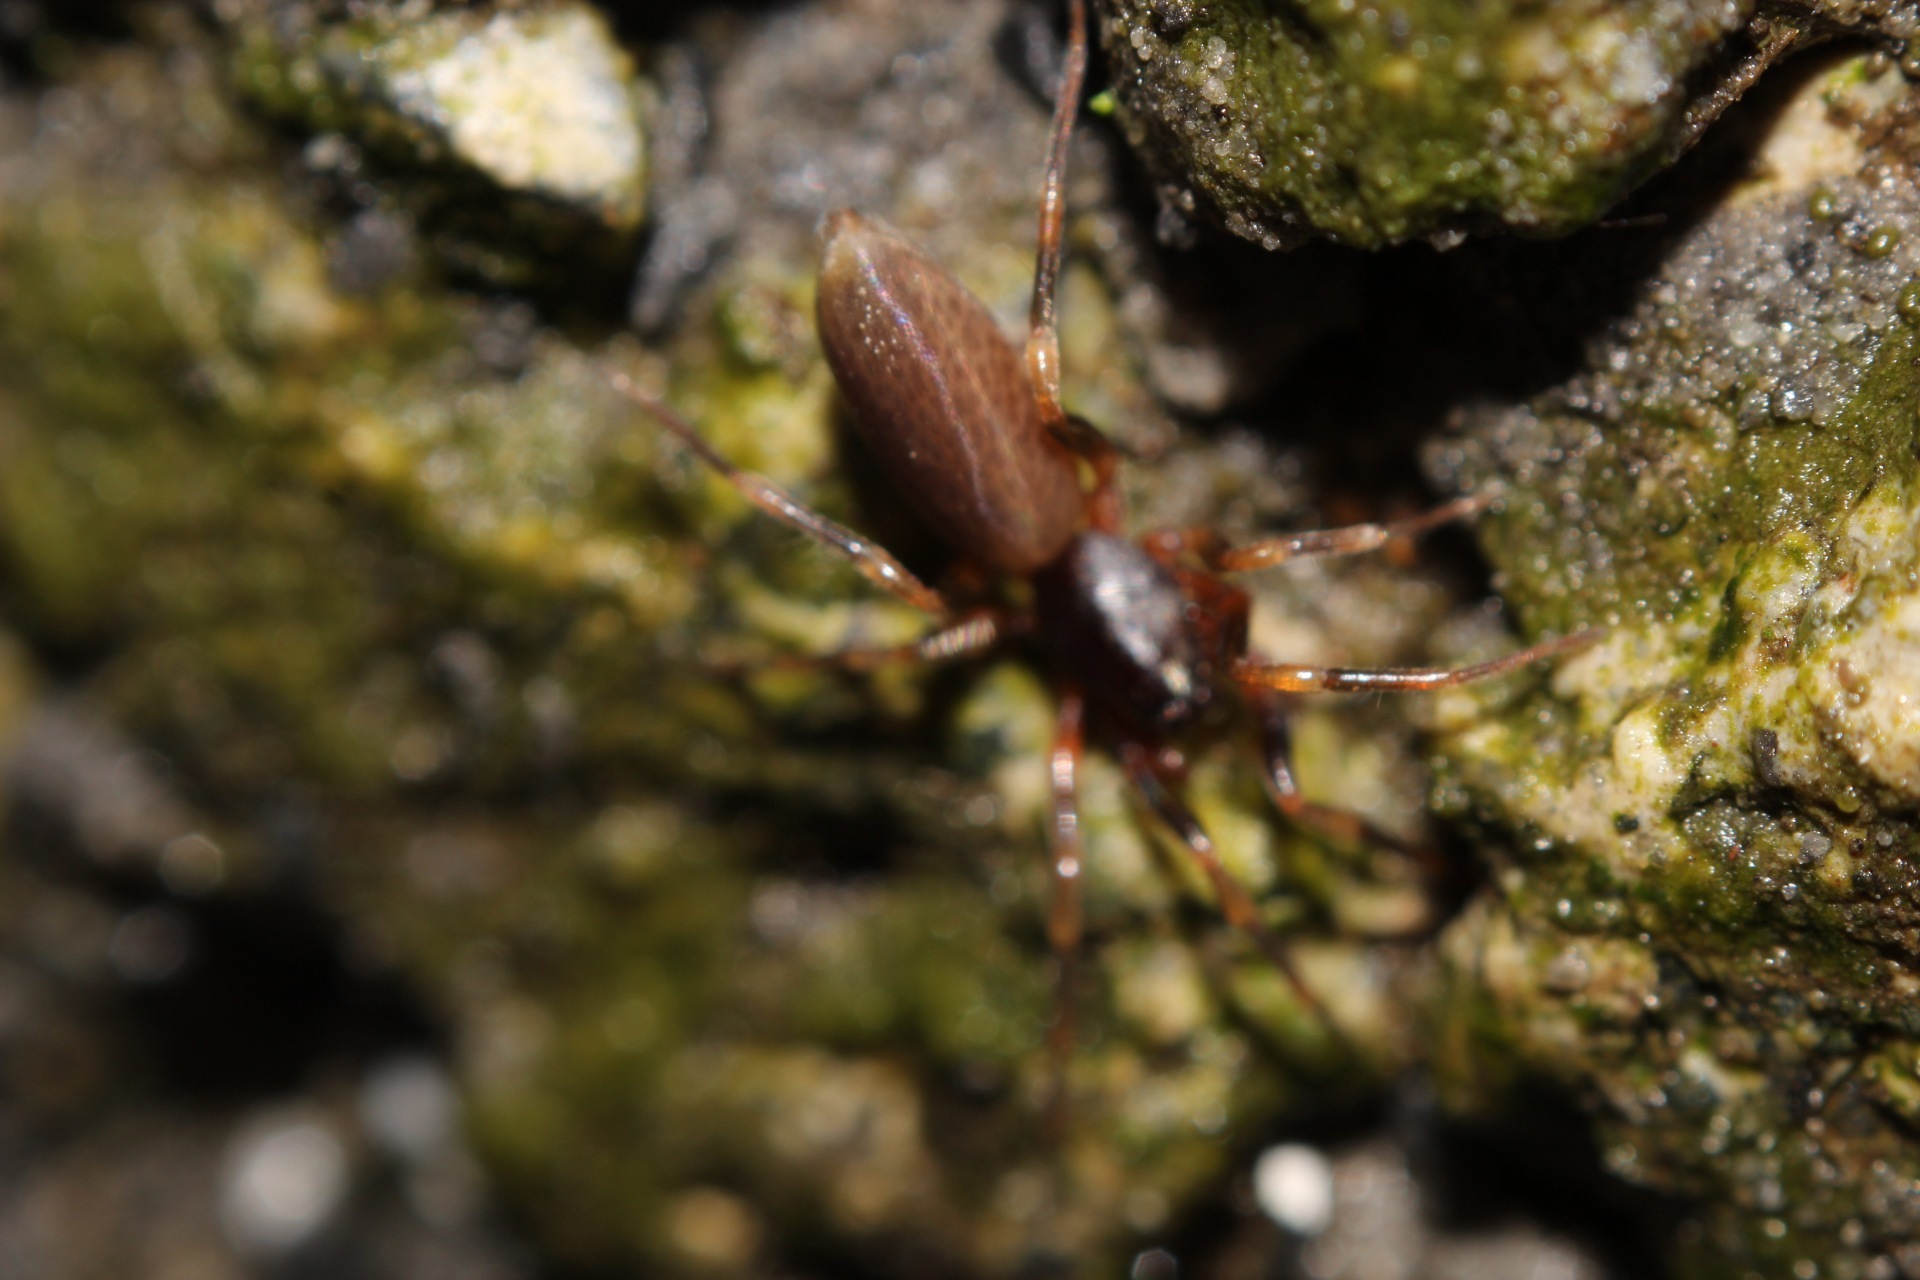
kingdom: Animalia
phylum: Arthropoda
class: Arachnida
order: Araneae
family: Dysderidae
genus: Harpactea
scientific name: Harpactea hombergi
